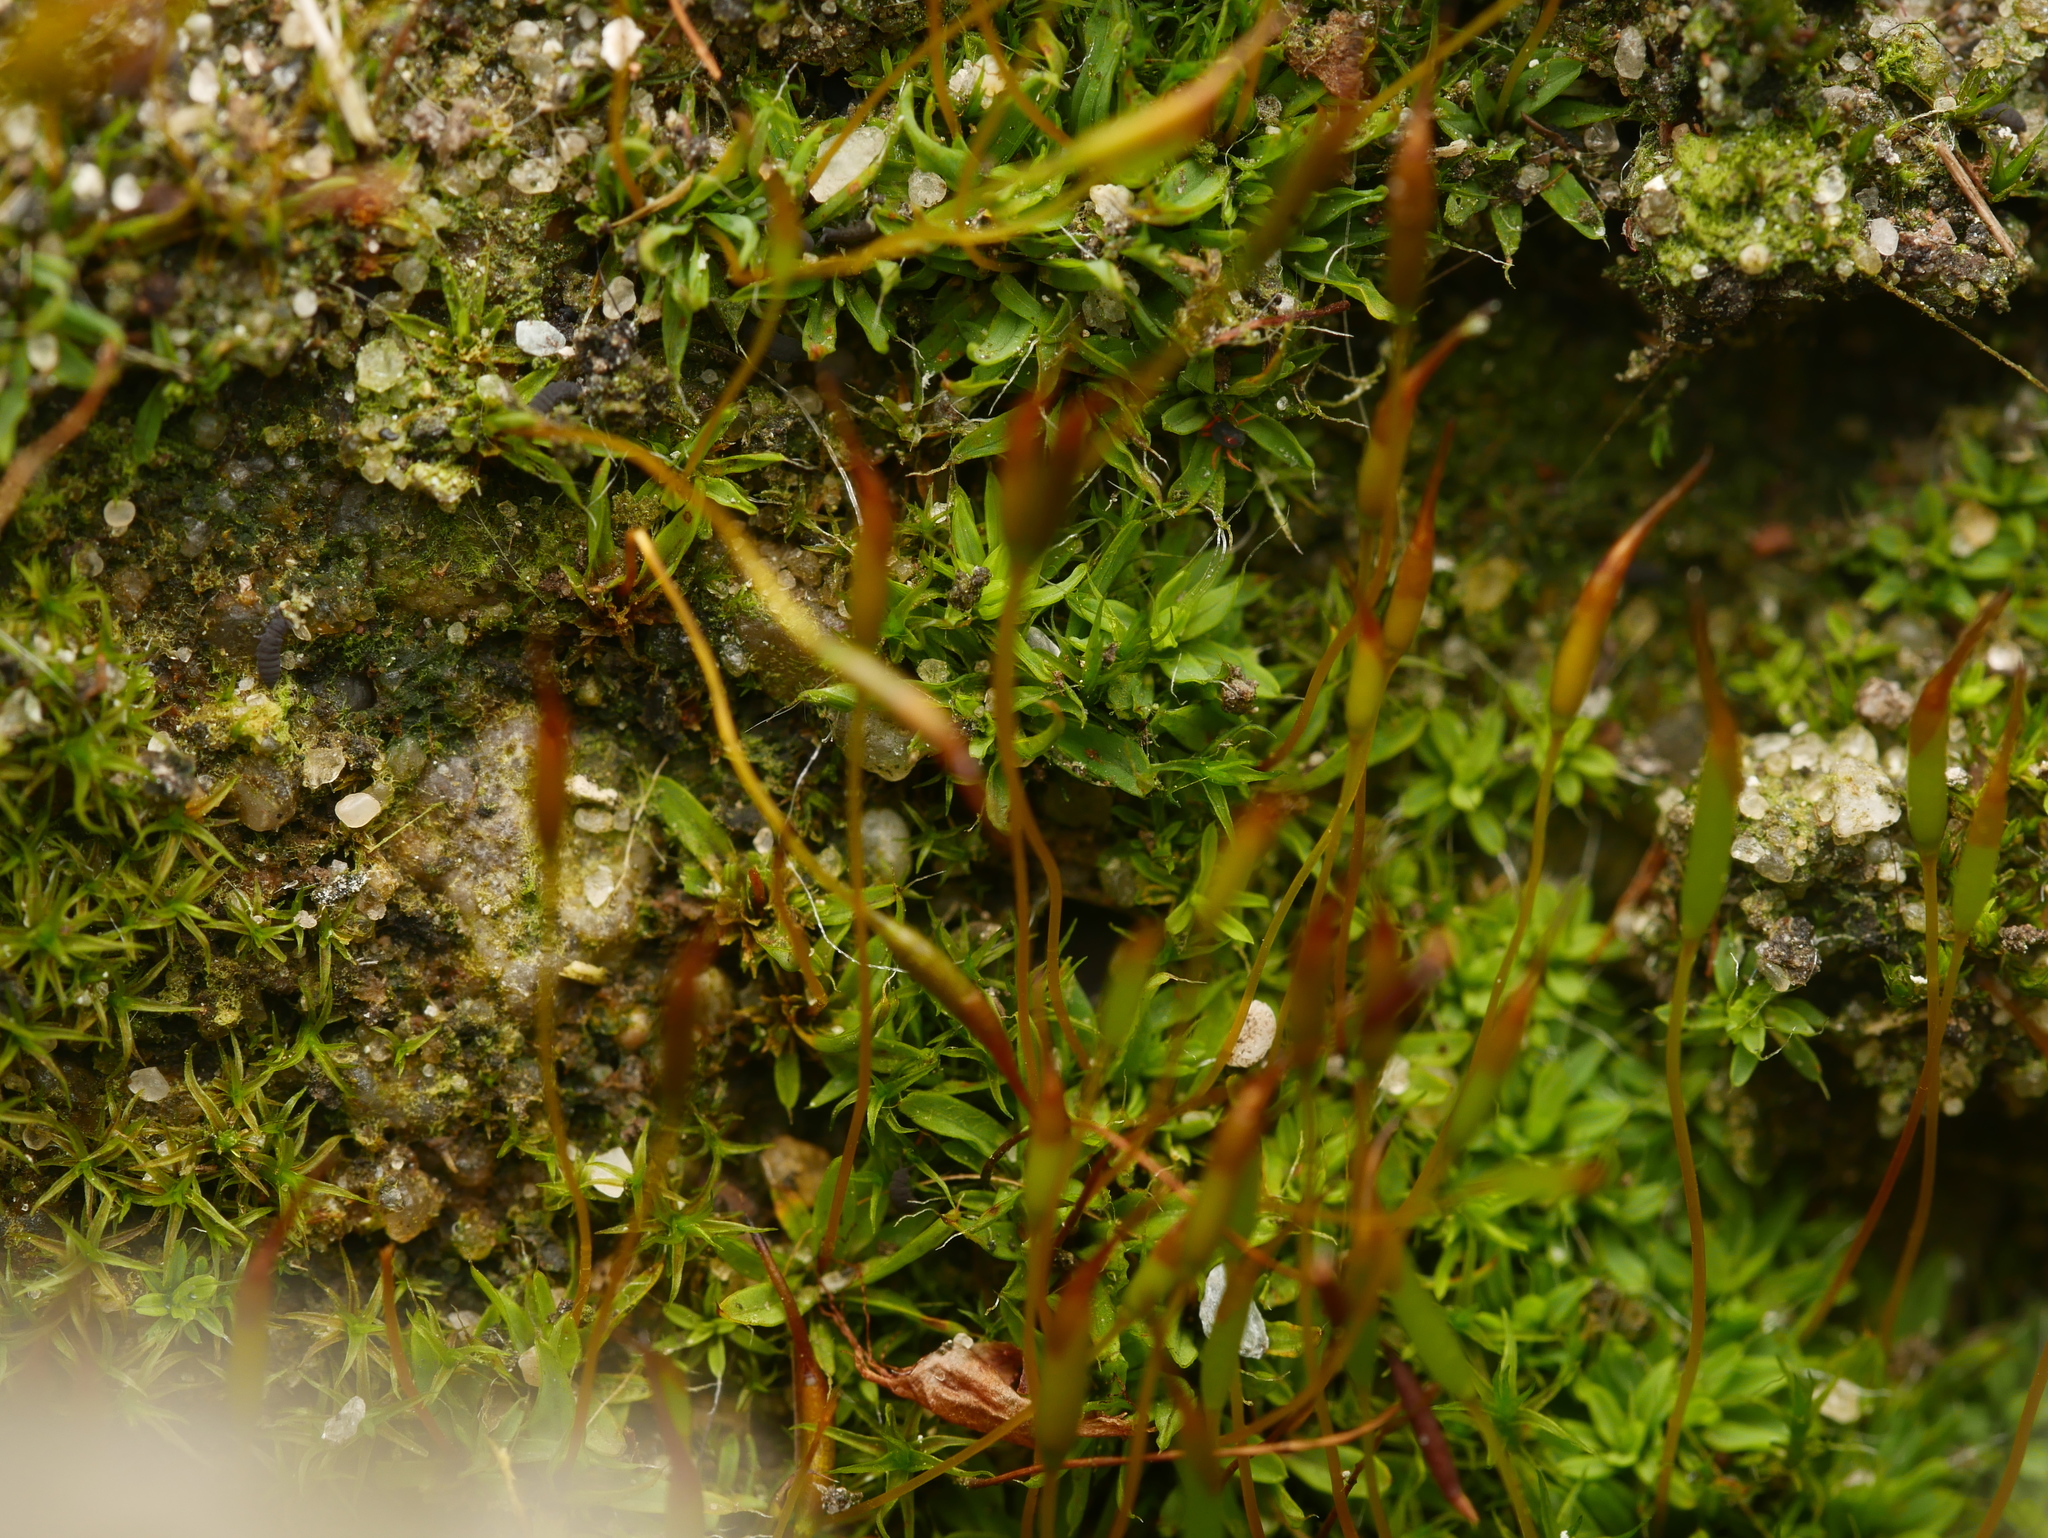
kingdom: Plantae
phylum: Bryophyta
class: Bryopsida
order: Pottiales
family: Pottiaceae
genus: Tortula
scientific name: Tortula muralis
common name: Wall screw-moss
